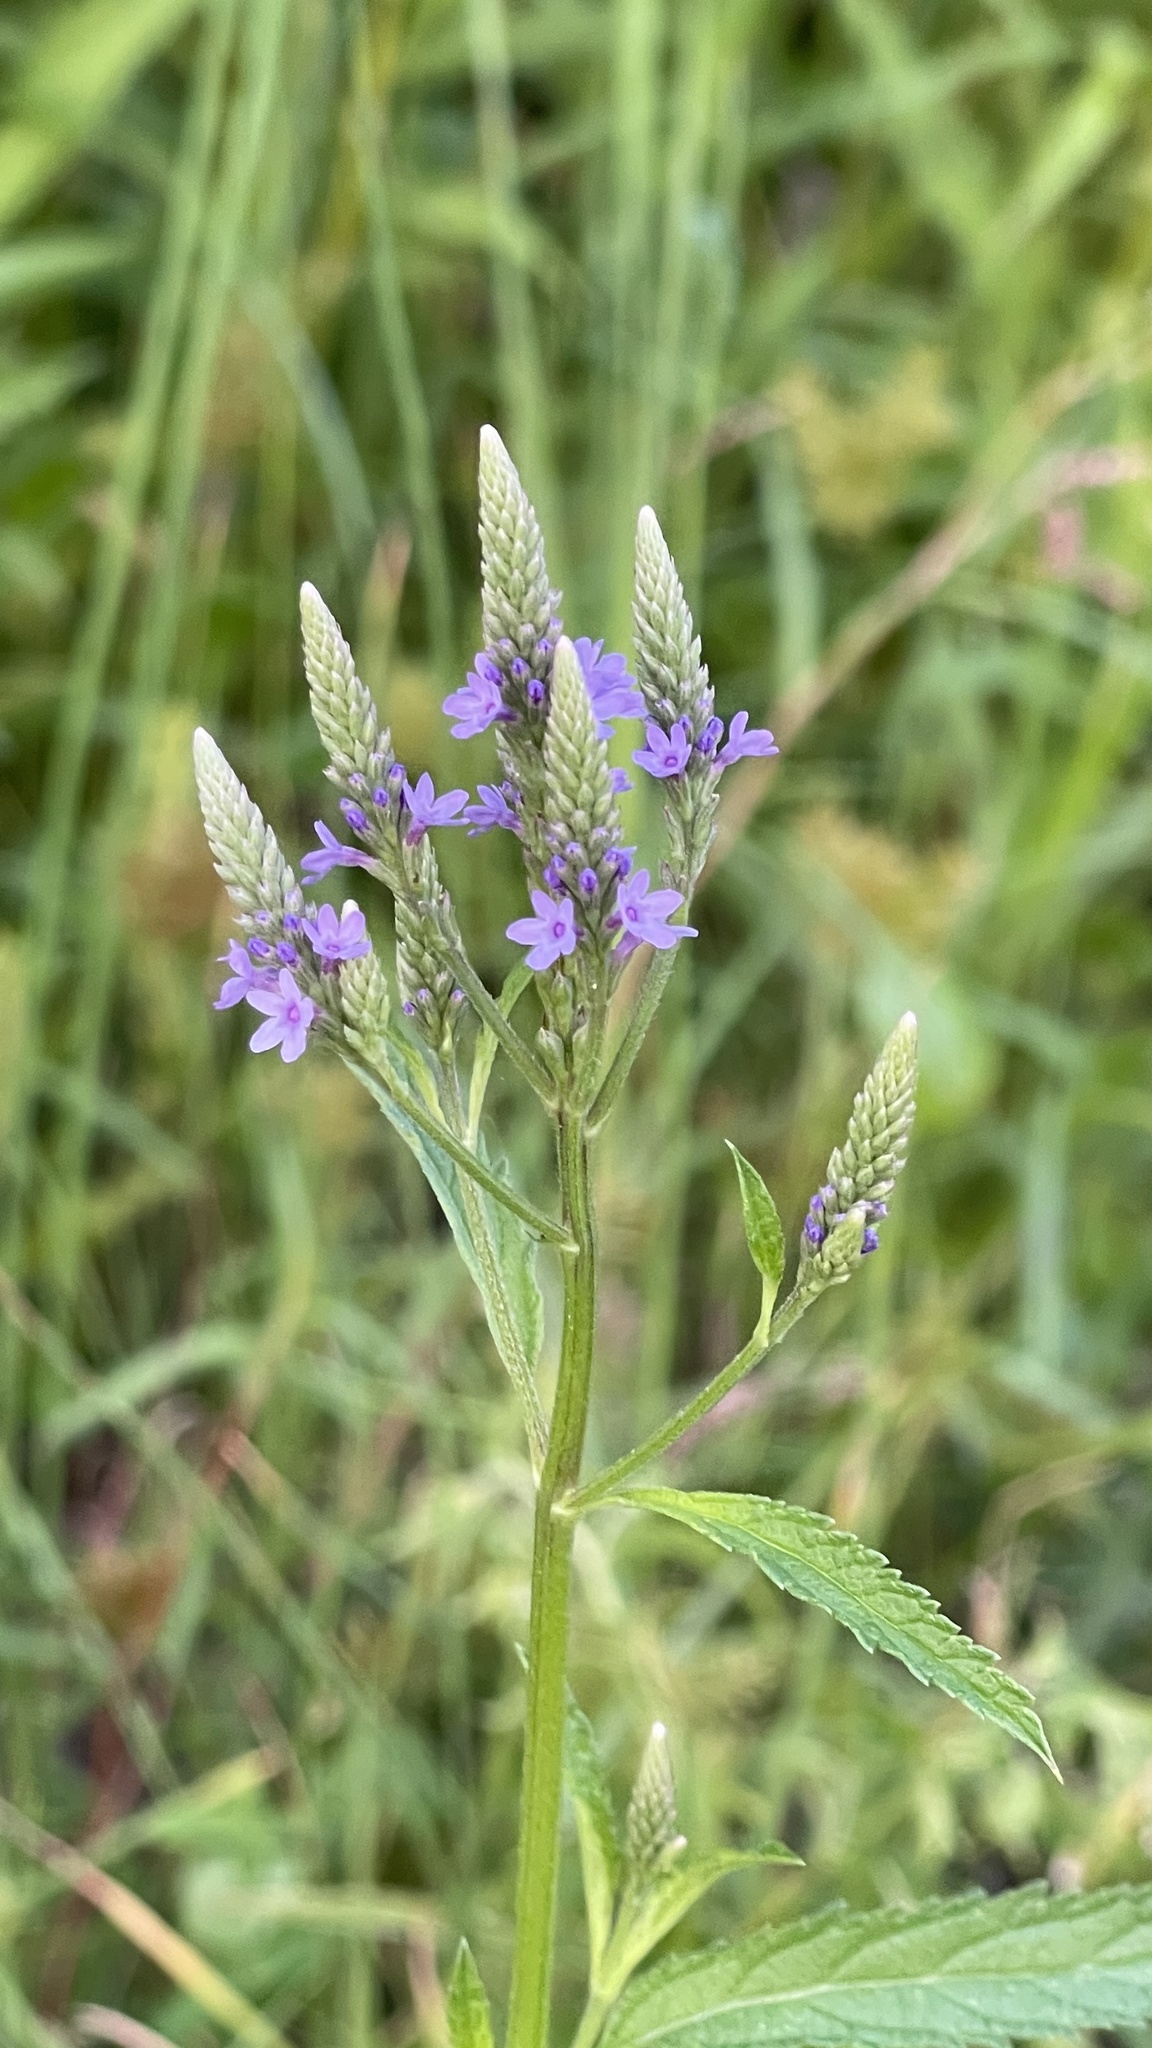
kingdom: Plantae
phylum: Tracheophyta
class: Magnoliopsida
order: Lamiales
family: Verbenaceae
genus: Verbena
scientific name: Verbena hastata
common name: American blue vervain
